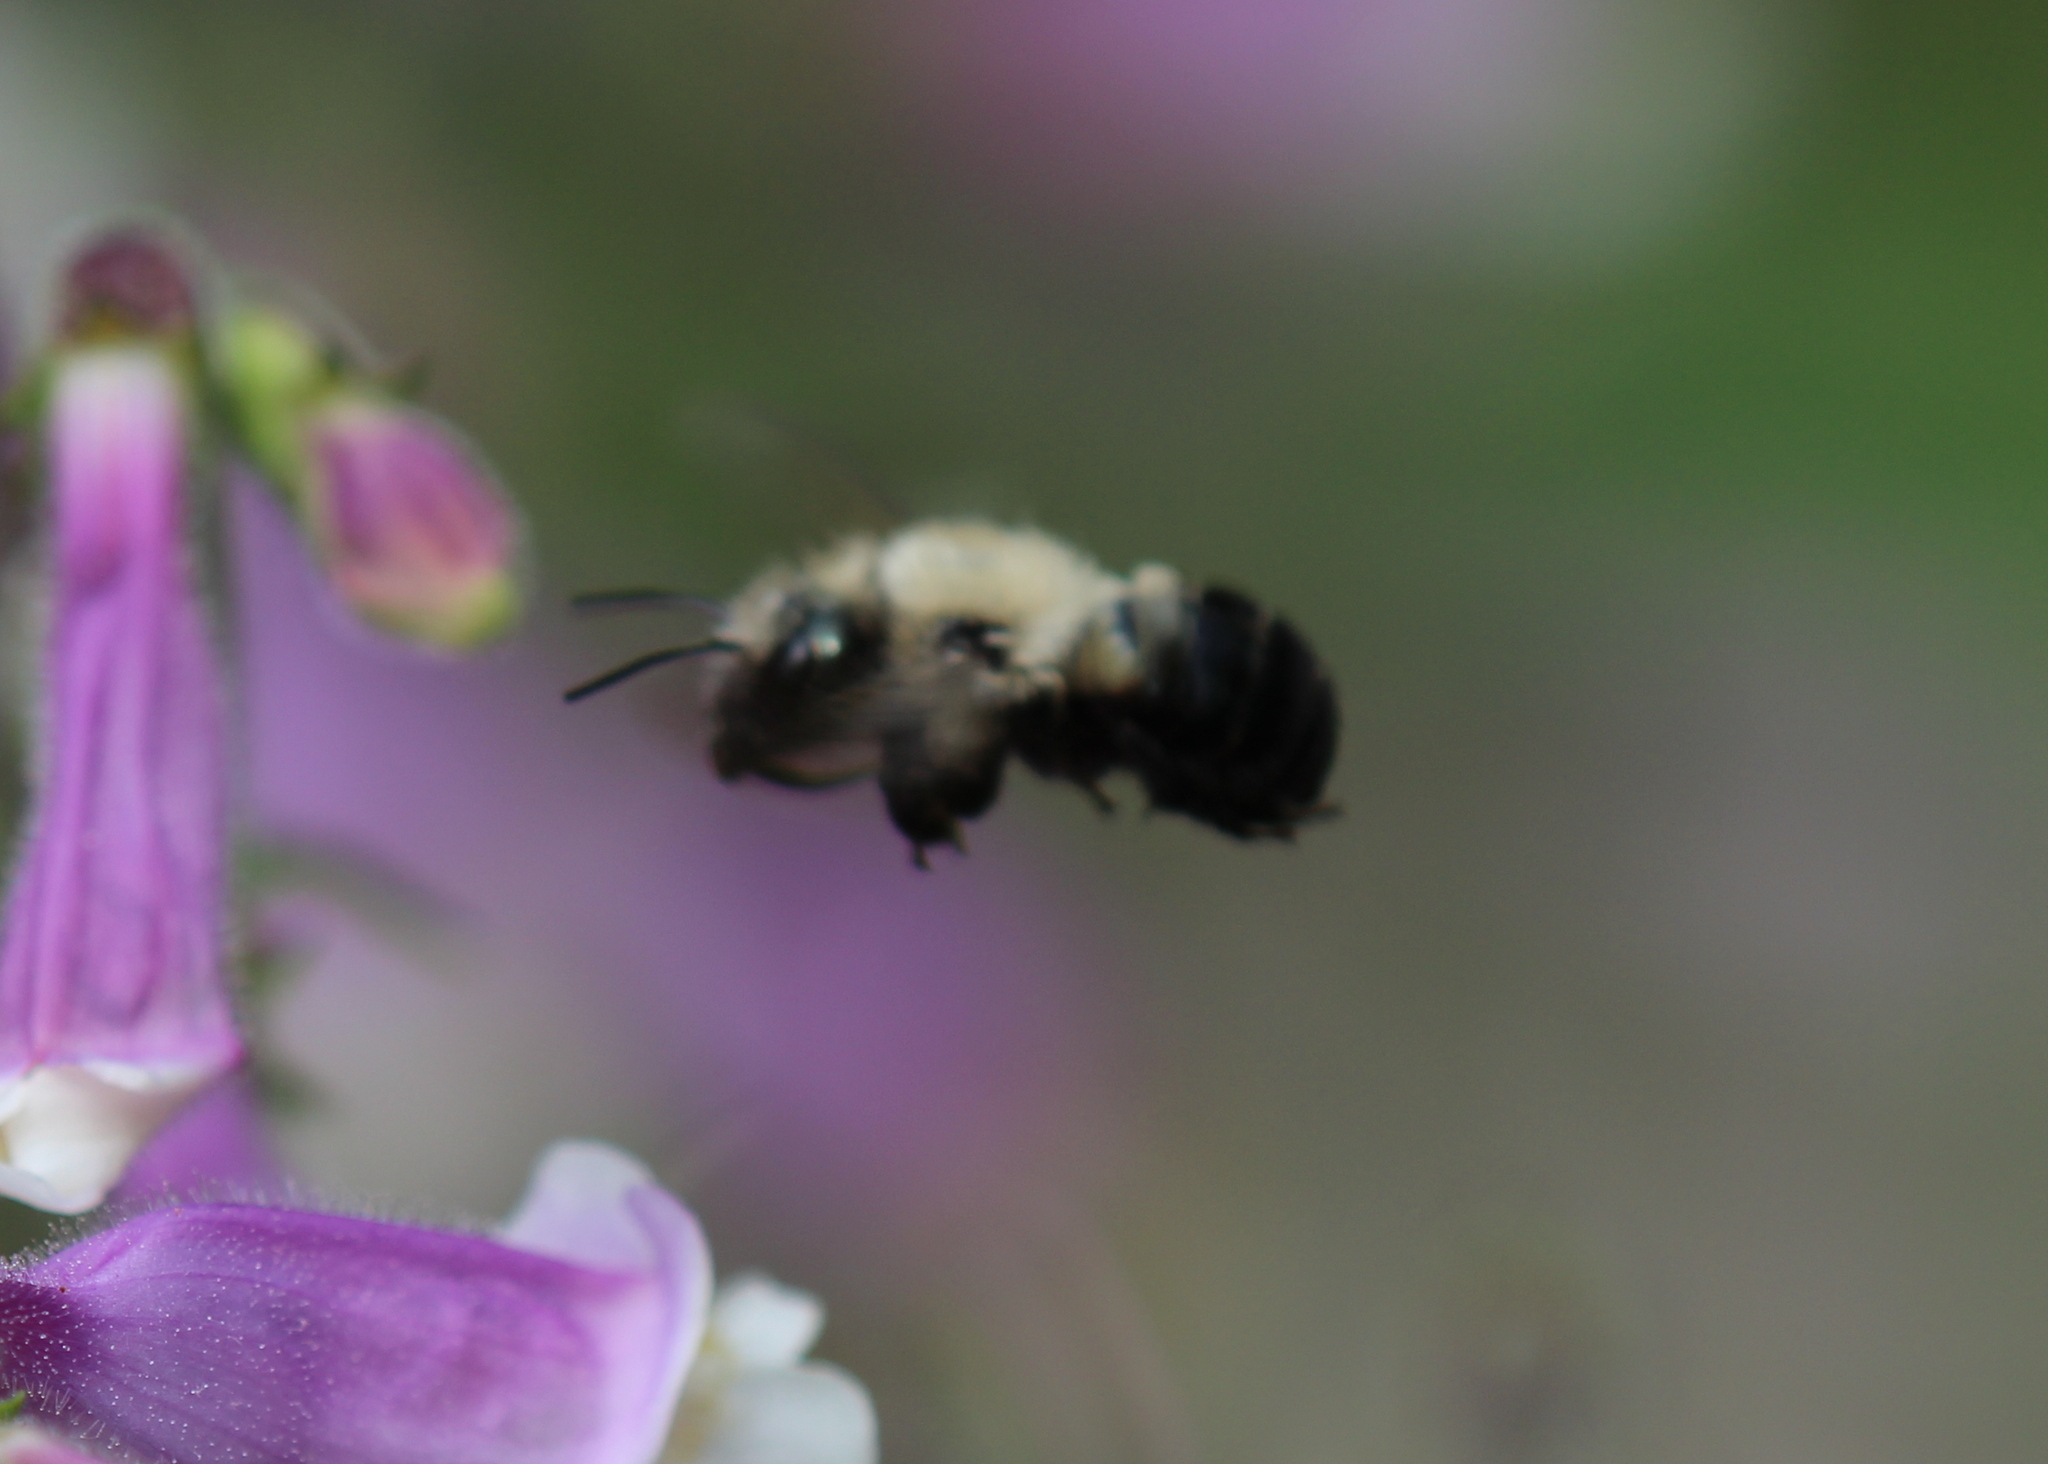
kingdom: Animalia
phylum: Arthropoda
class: Insecta
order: Hymenoptera
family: Megachilidae
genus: Osmia
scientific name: Osmia bucephala
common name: Bufflehead mason bee
